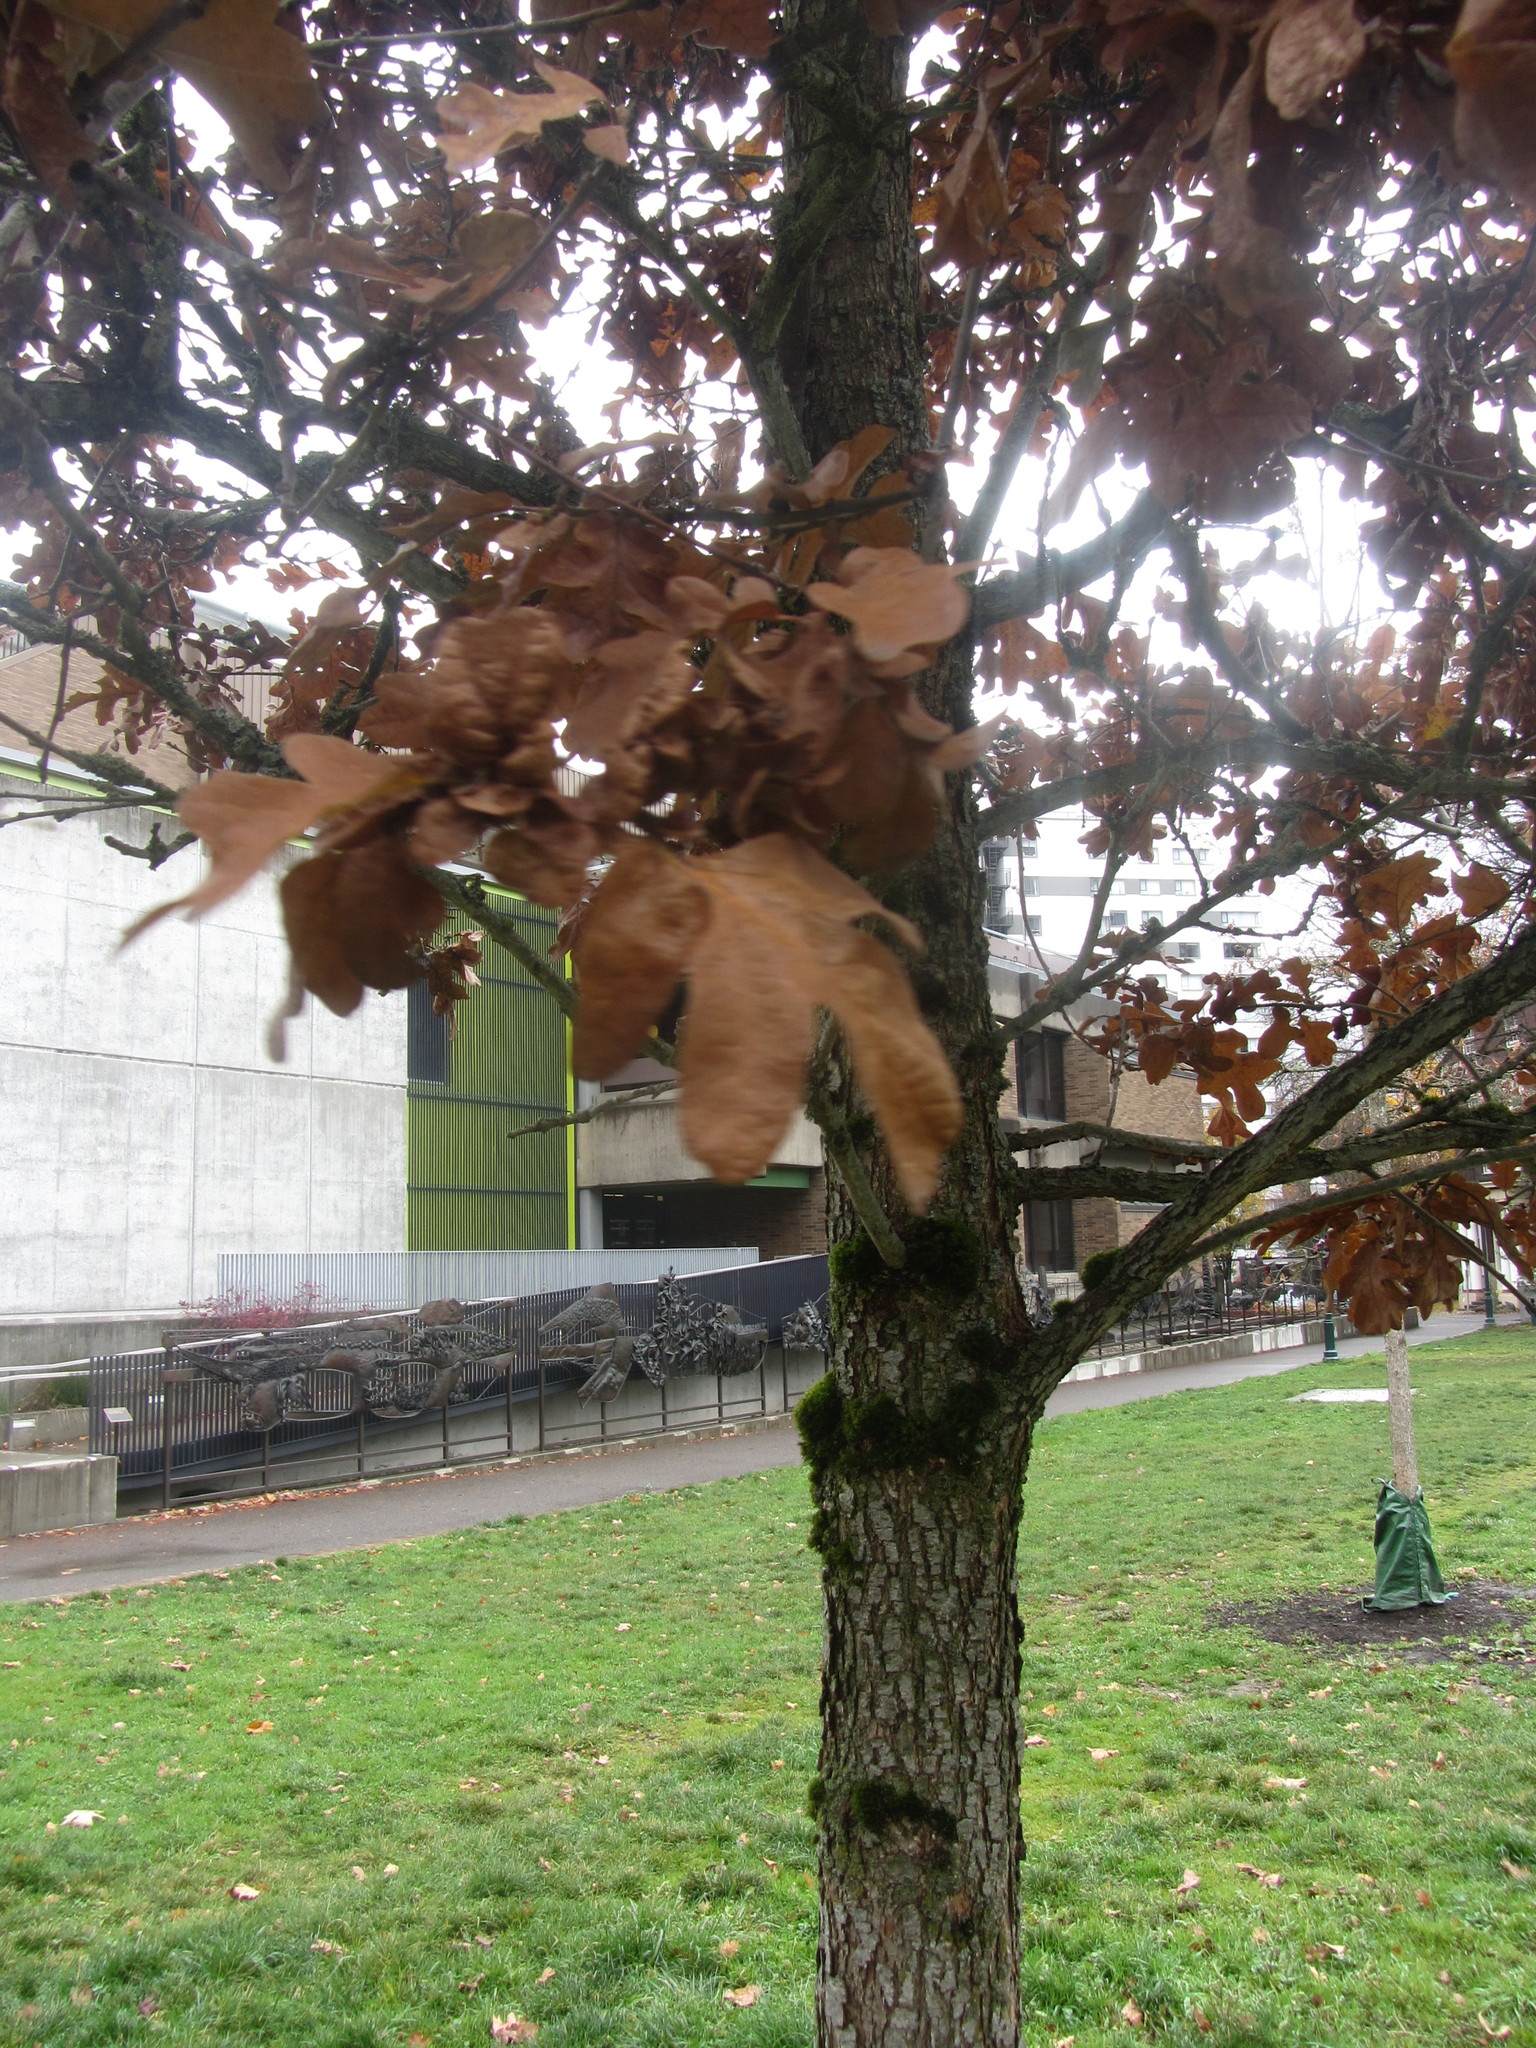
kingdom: Plantae
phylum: Tracheophyta
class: Magnoliopsida
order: Fagales
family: Fagaceae
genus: Quercus
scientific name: Quercus garryana
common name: Garry oak
